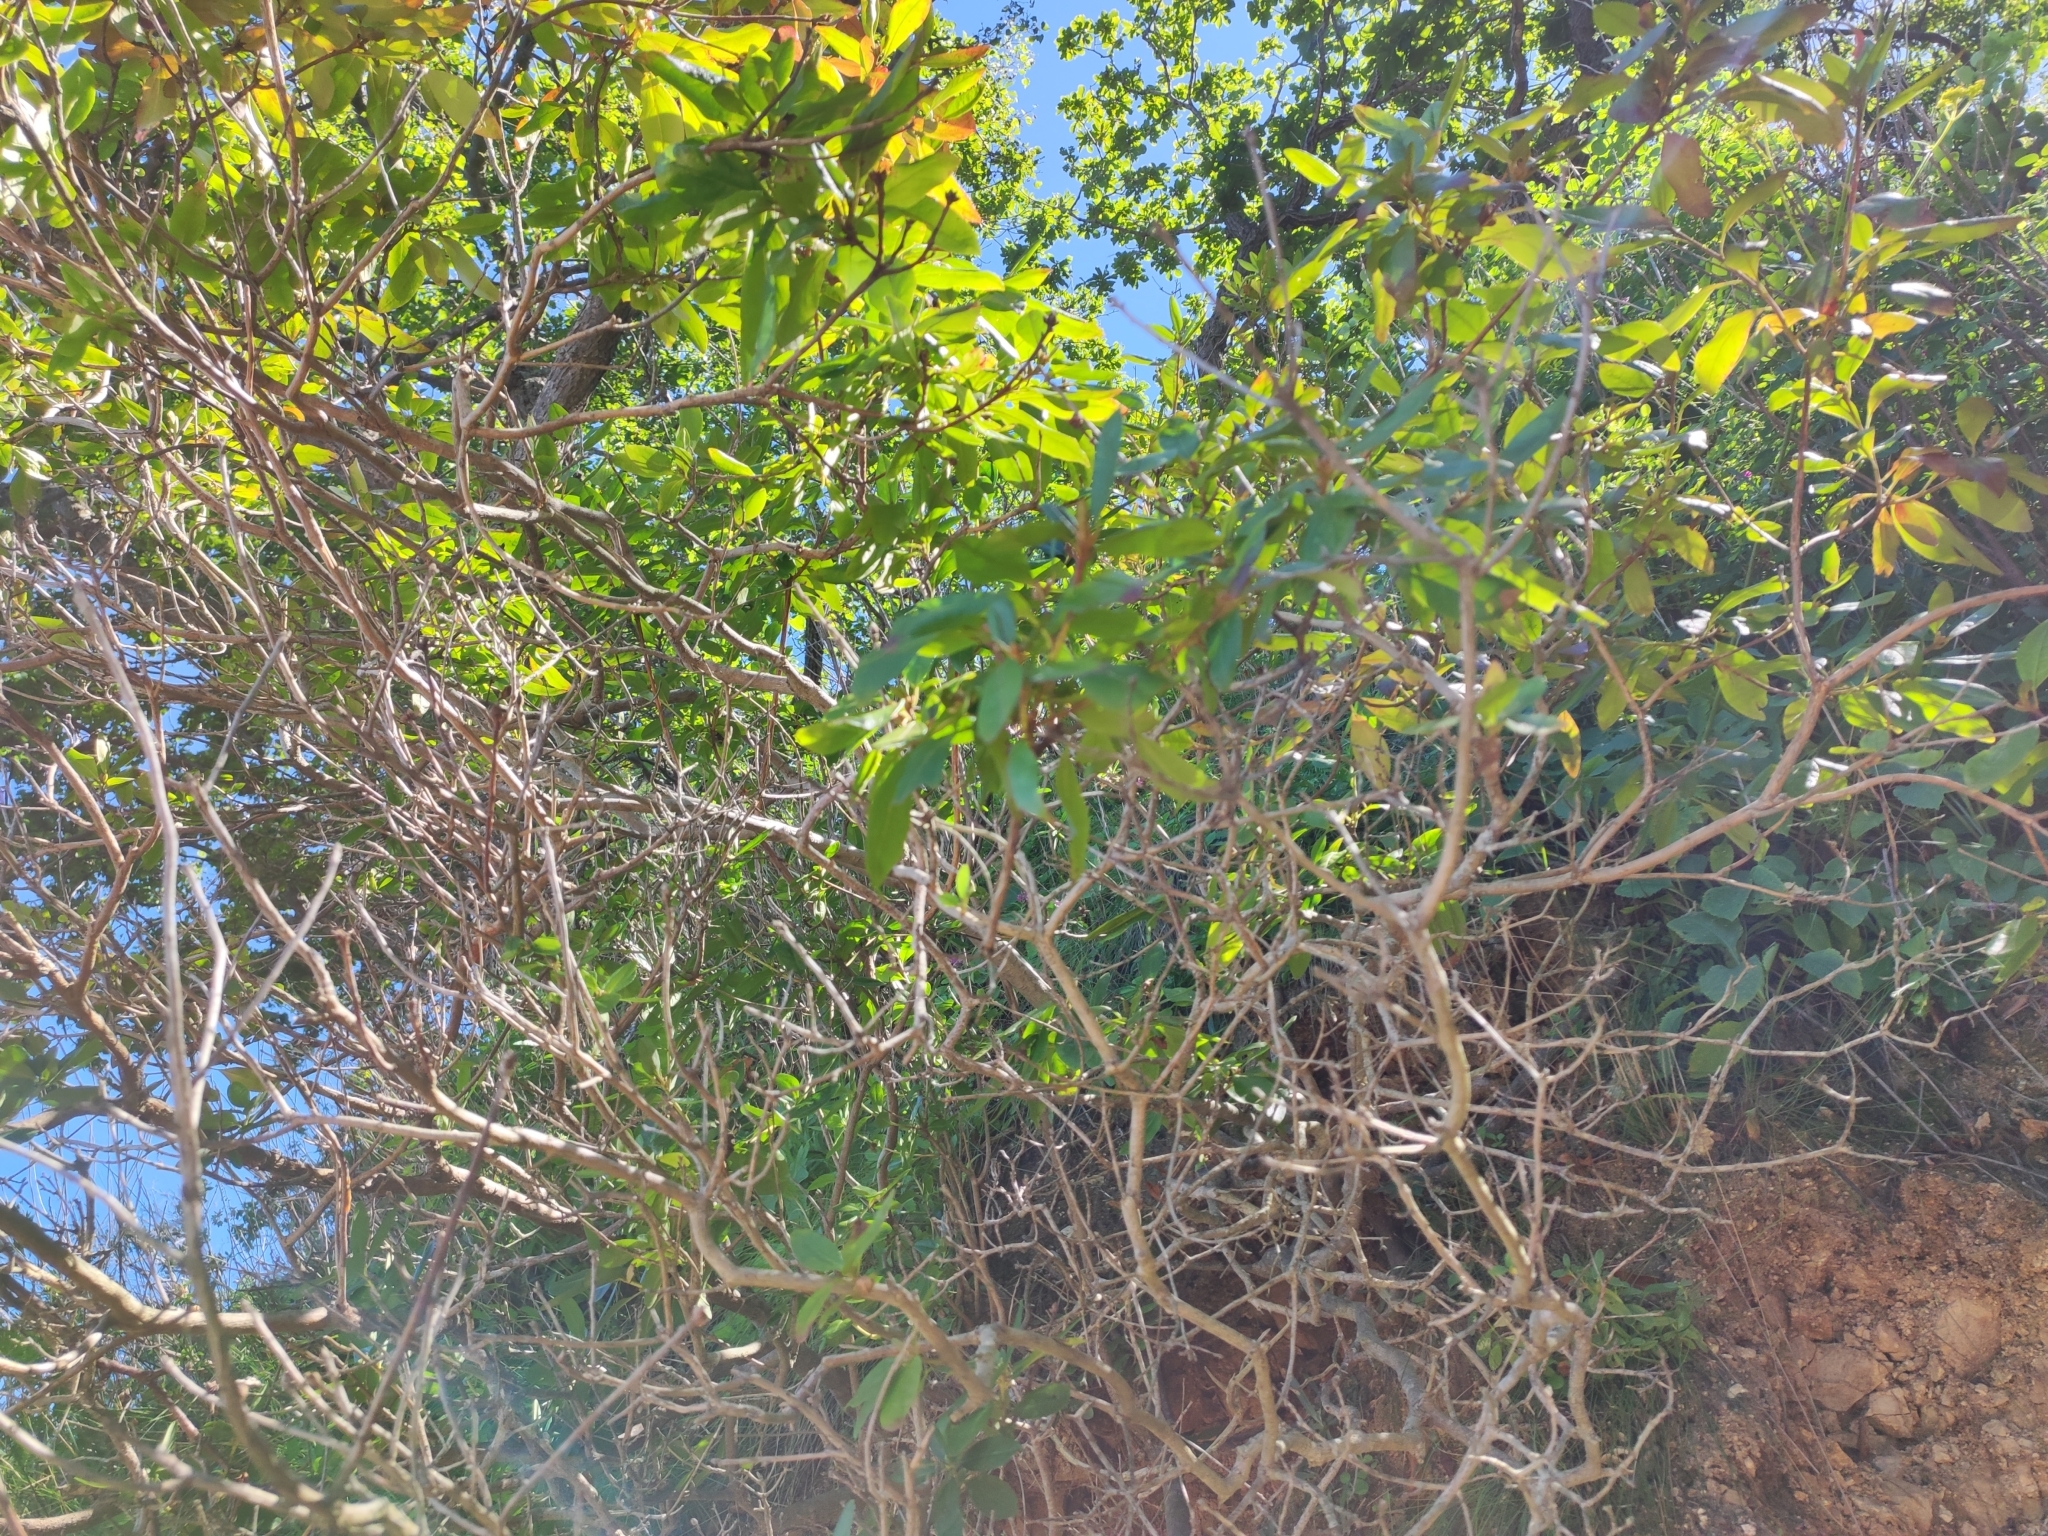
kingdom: Plantae
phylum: Tracheophyta
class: Magnoliopsida
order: Ericales
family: Ericaceae
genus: Rhododendron
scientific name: Rhododendron mucronulatum
